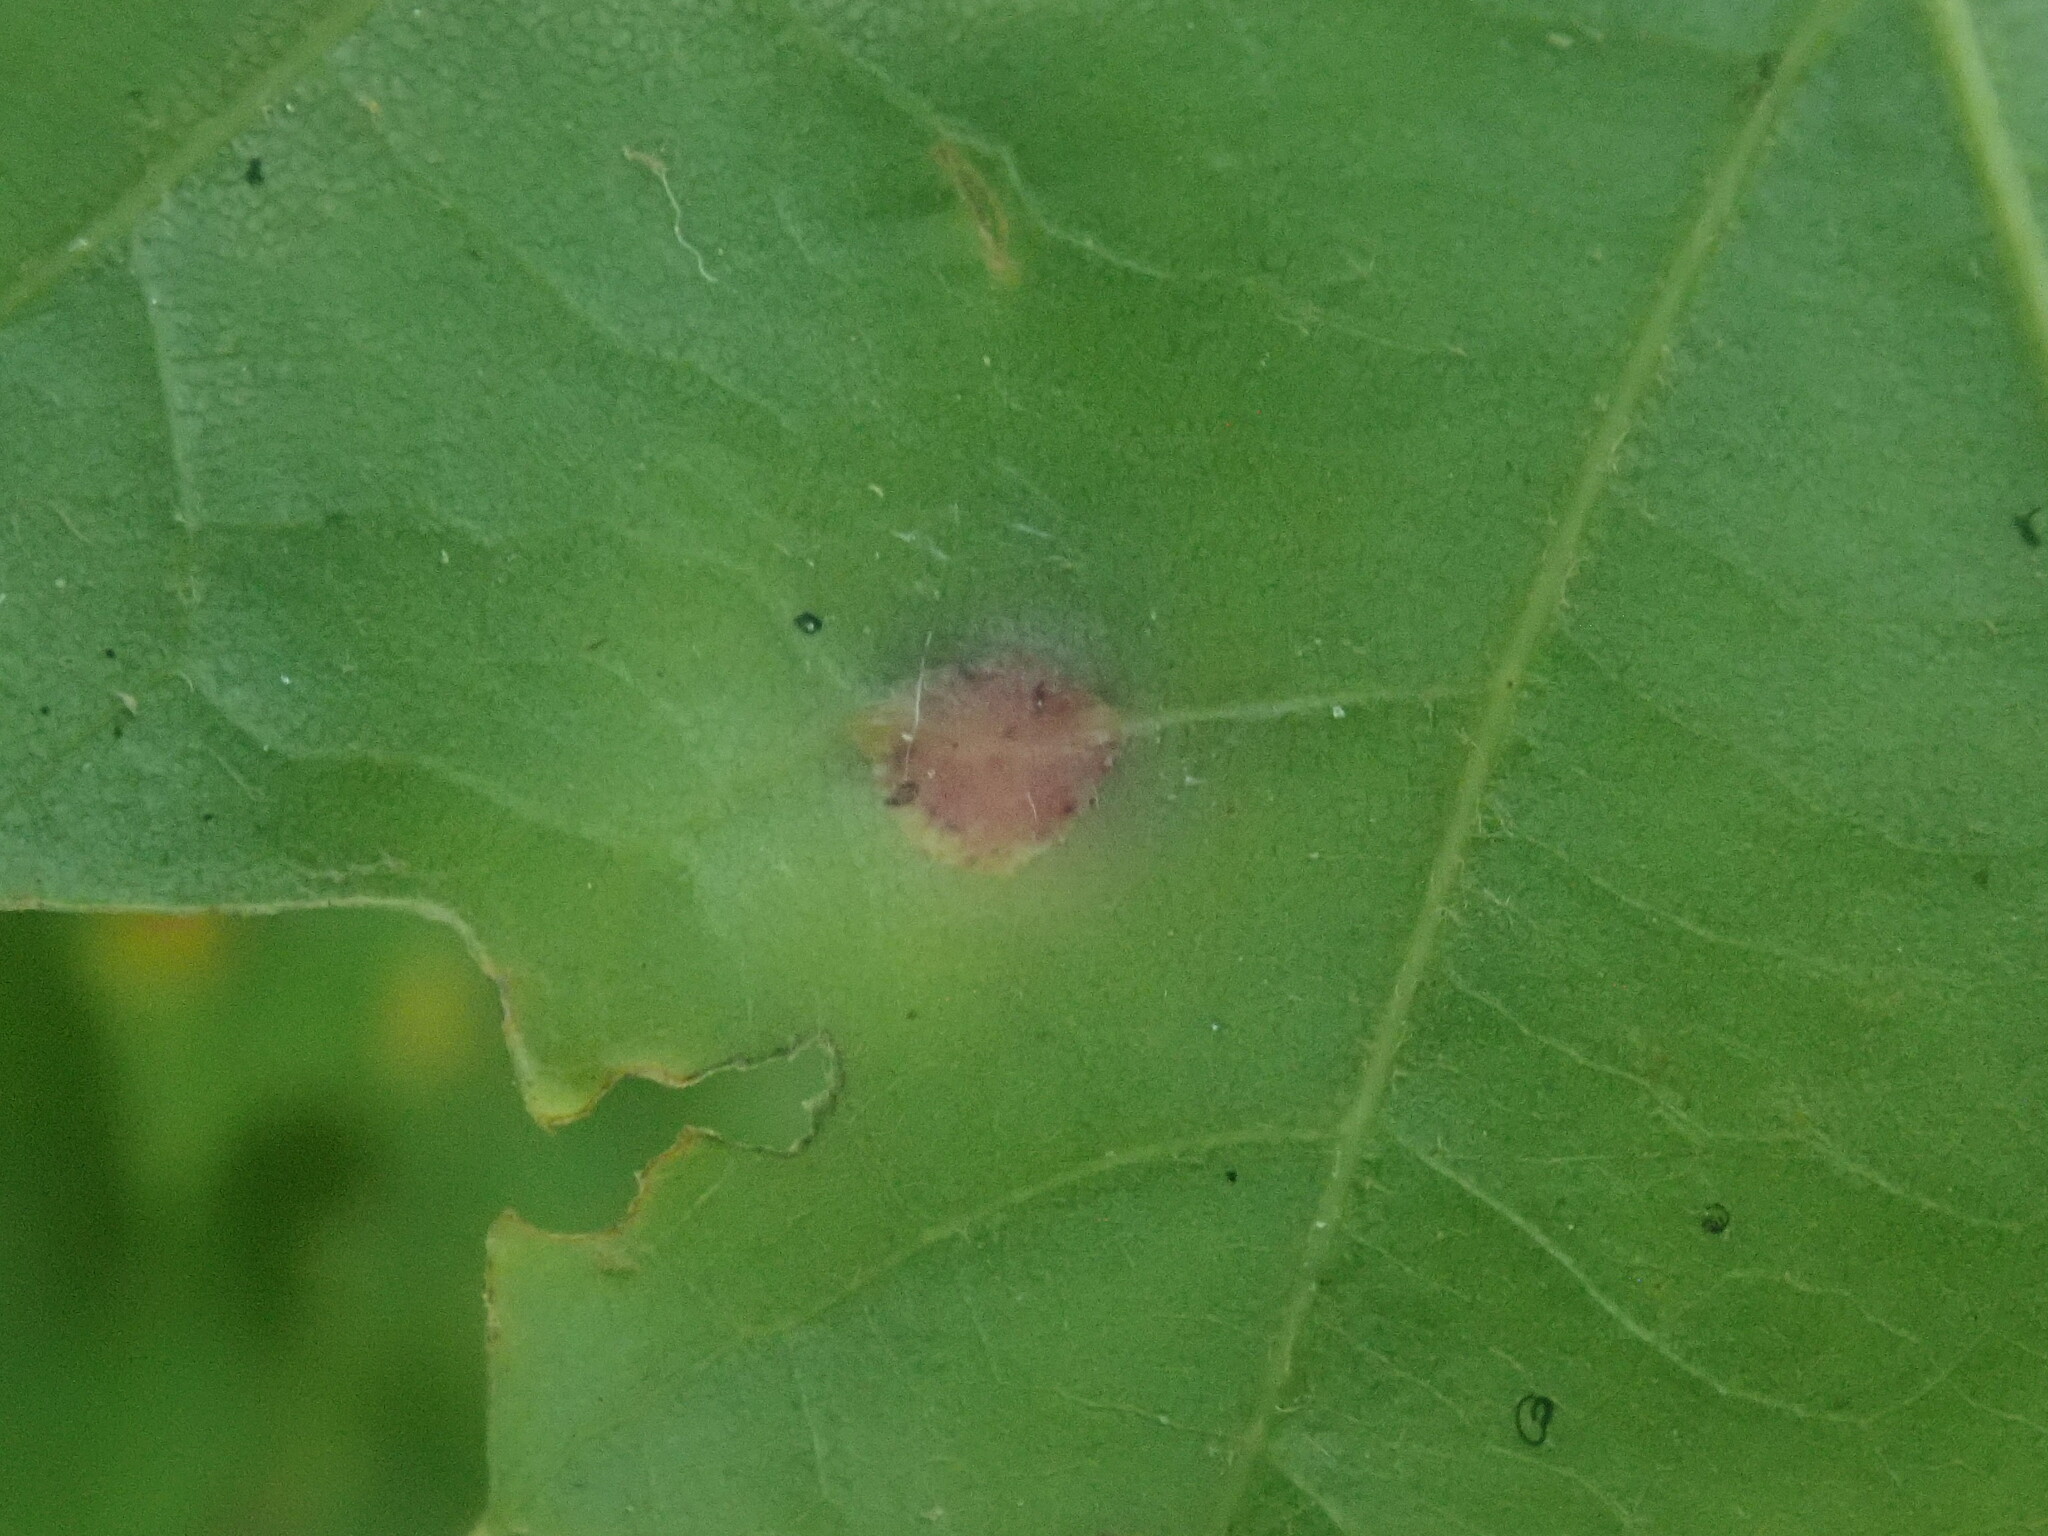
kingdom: Animalia
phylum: Arthropoda
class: Insecta
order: Diptera
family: Cecidomyiidae
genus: Polystepha
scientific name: Polystepha pilulae
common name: Oak leaf gall midge
